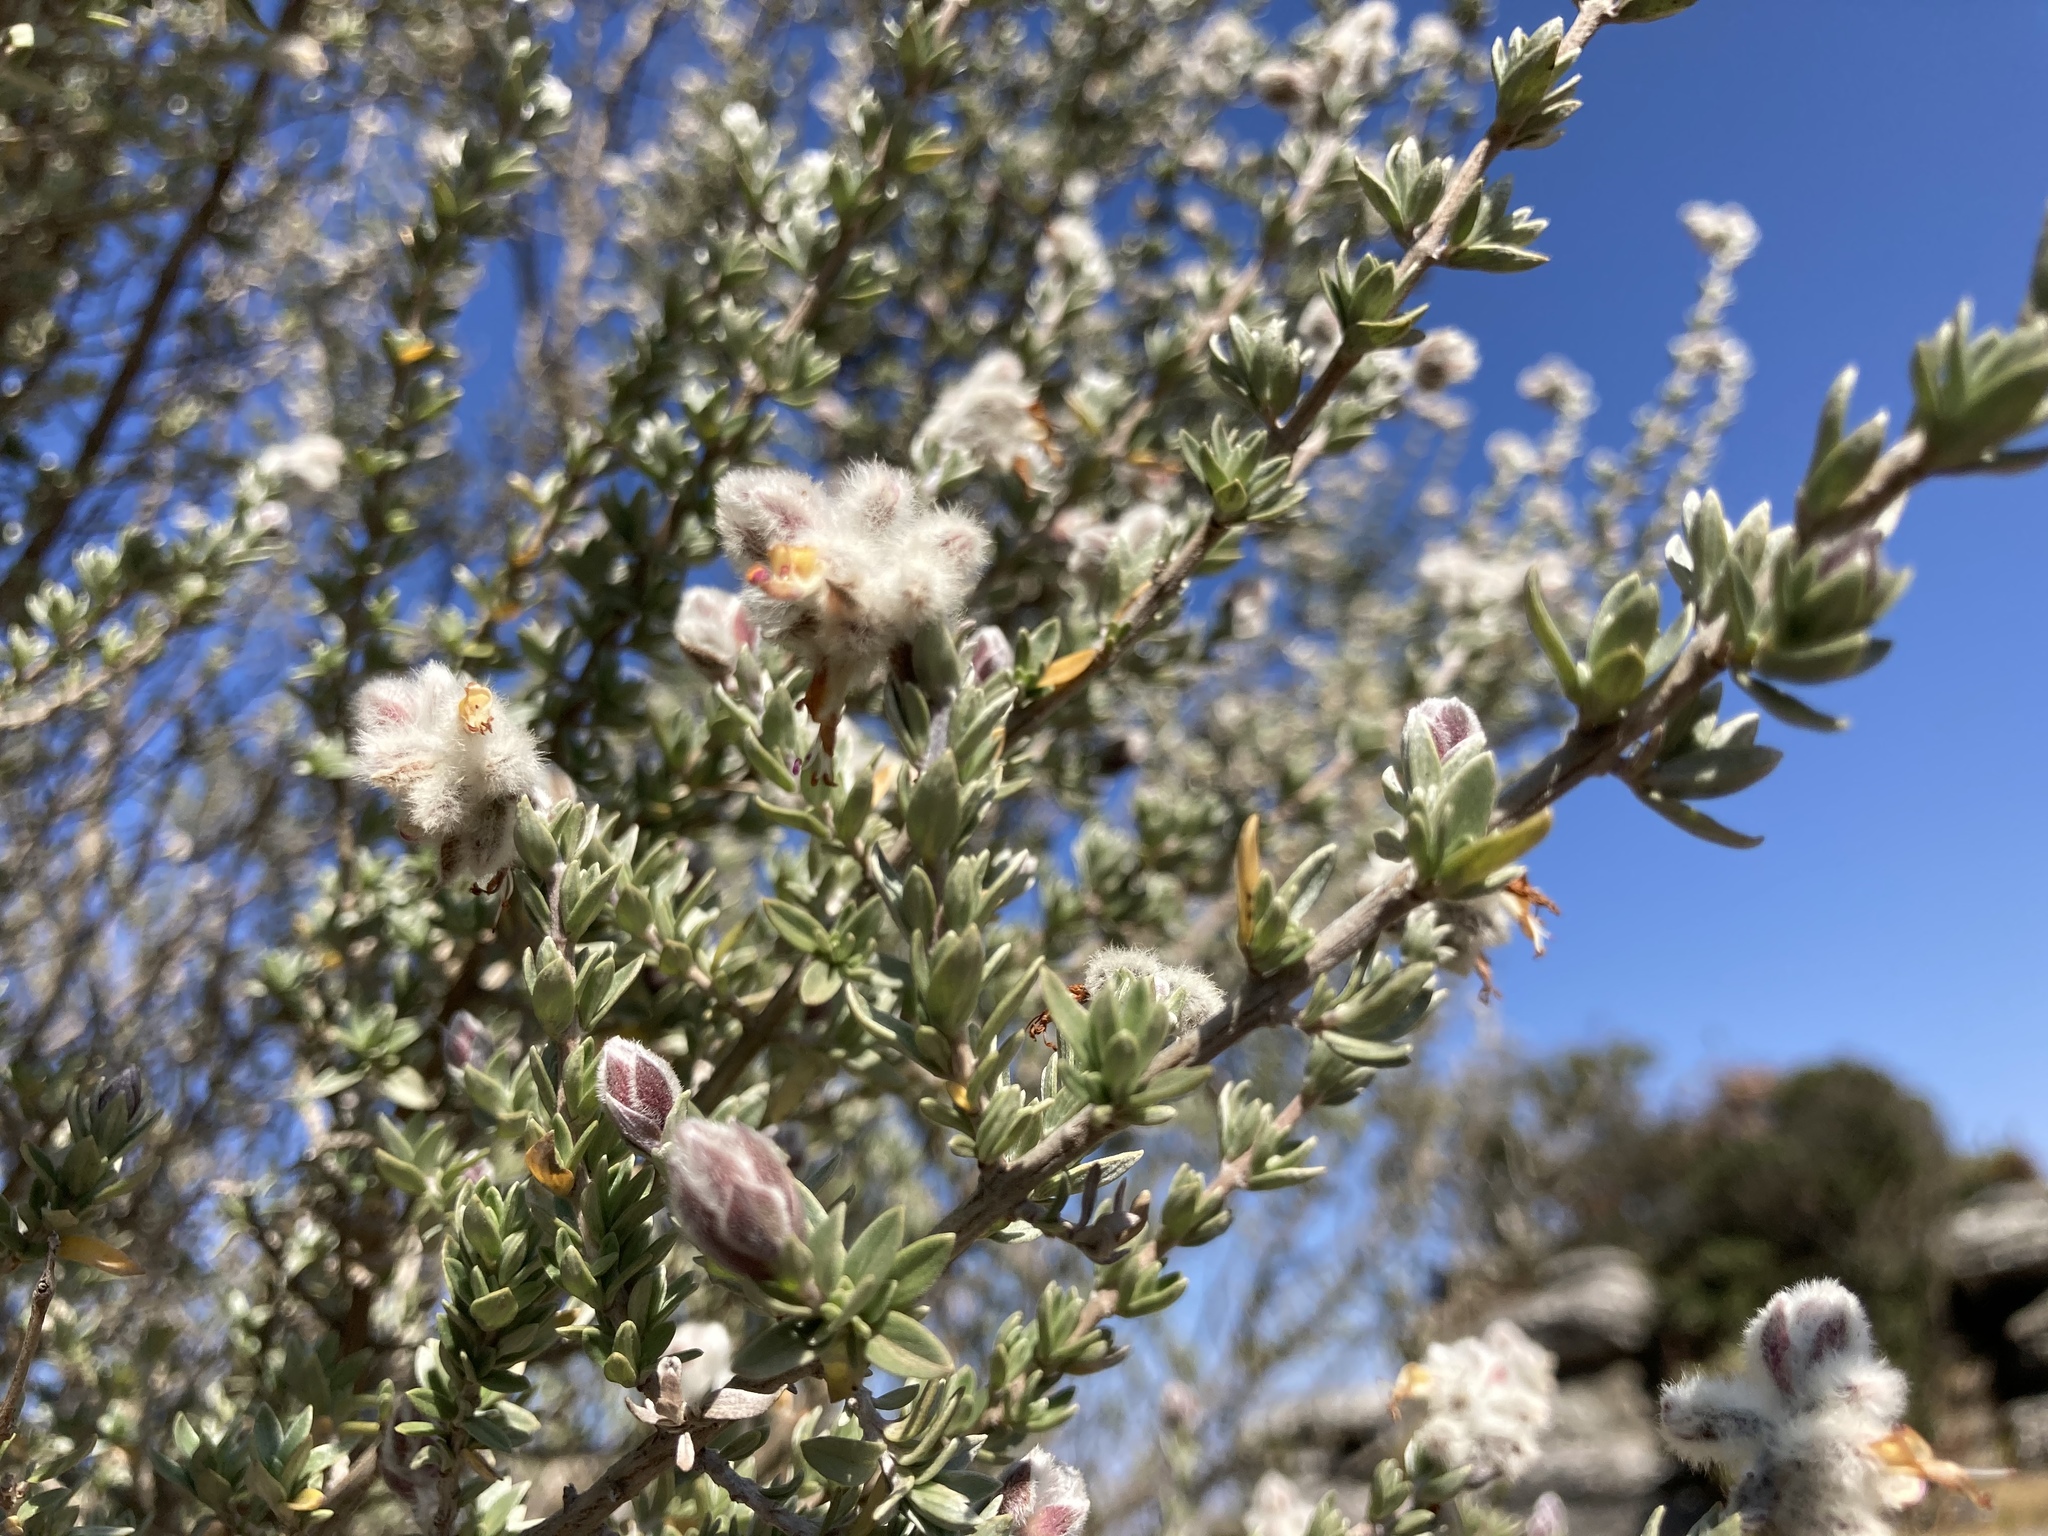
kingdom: Plantae
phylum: Tracheophyta
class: Magnoliopsida
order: Lamiales
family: Lamiaceae
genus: Syncolostemon
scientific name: Syncolostemon eriocephalus
